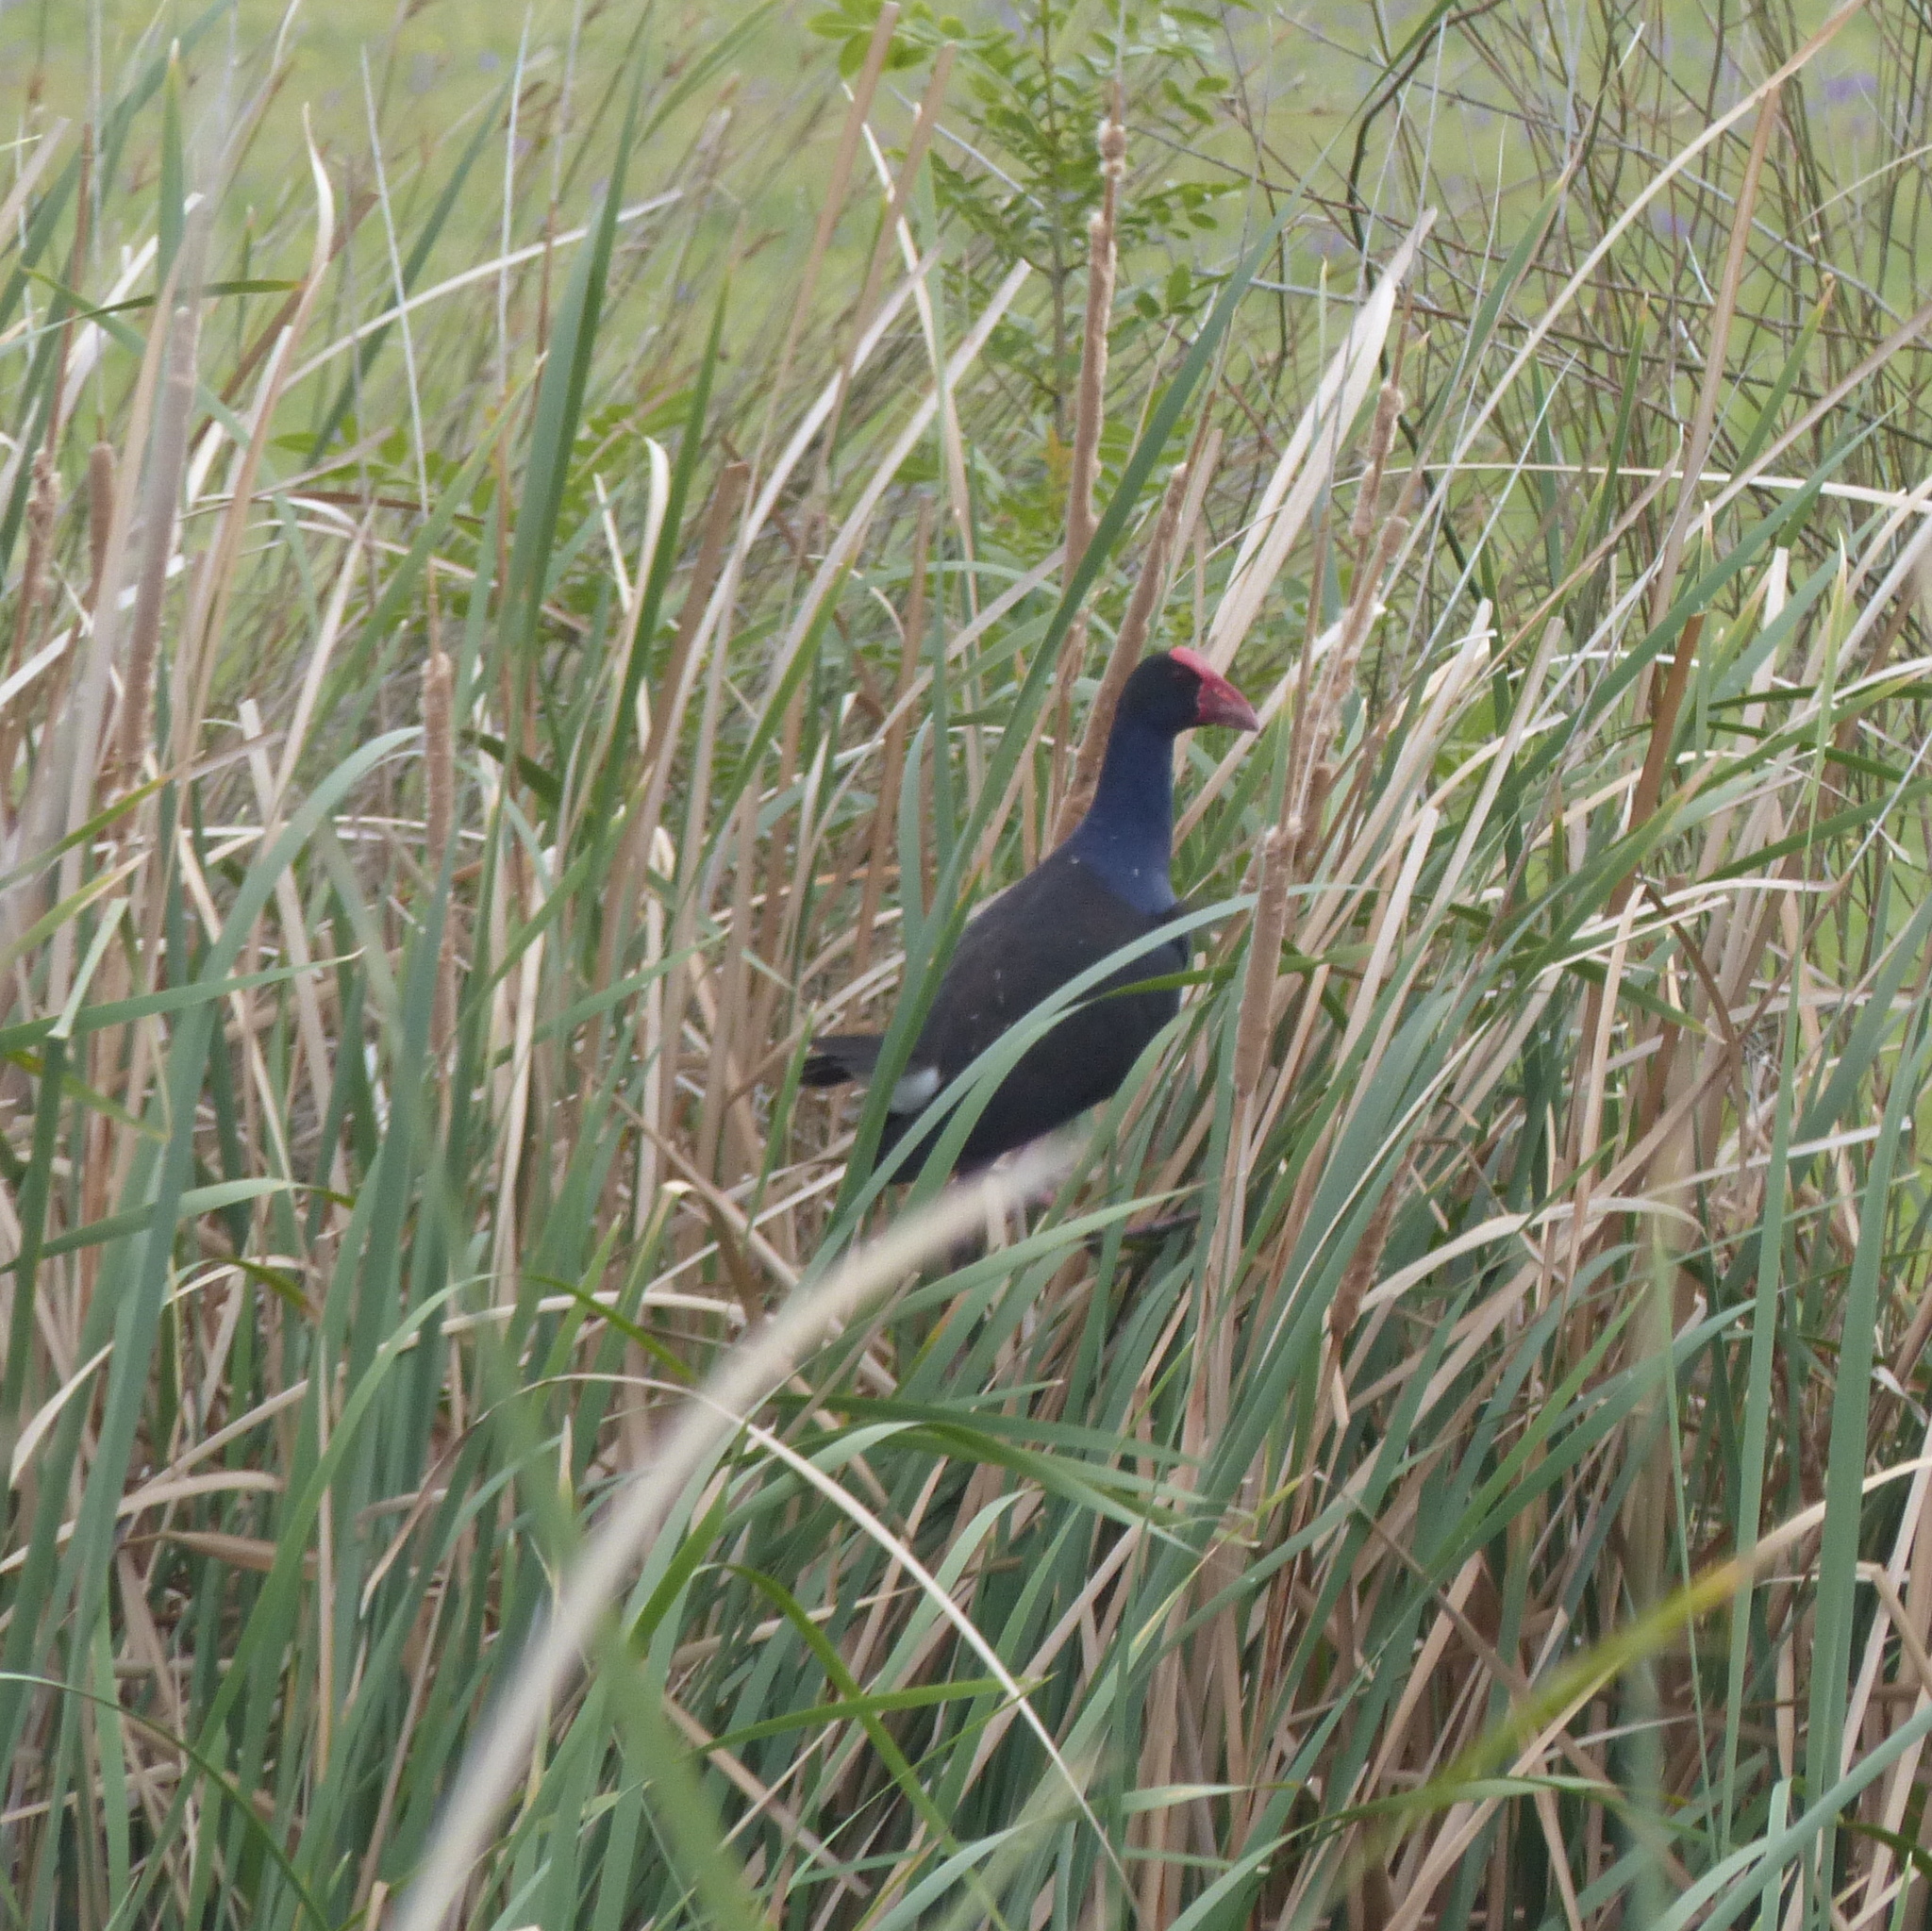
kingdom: Animalia
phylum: Chordata
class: Aves
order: Gruiformes
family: Rallidae
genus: Porphyrio
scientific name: Porphyrio melanotus
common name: Australasian swamphen
